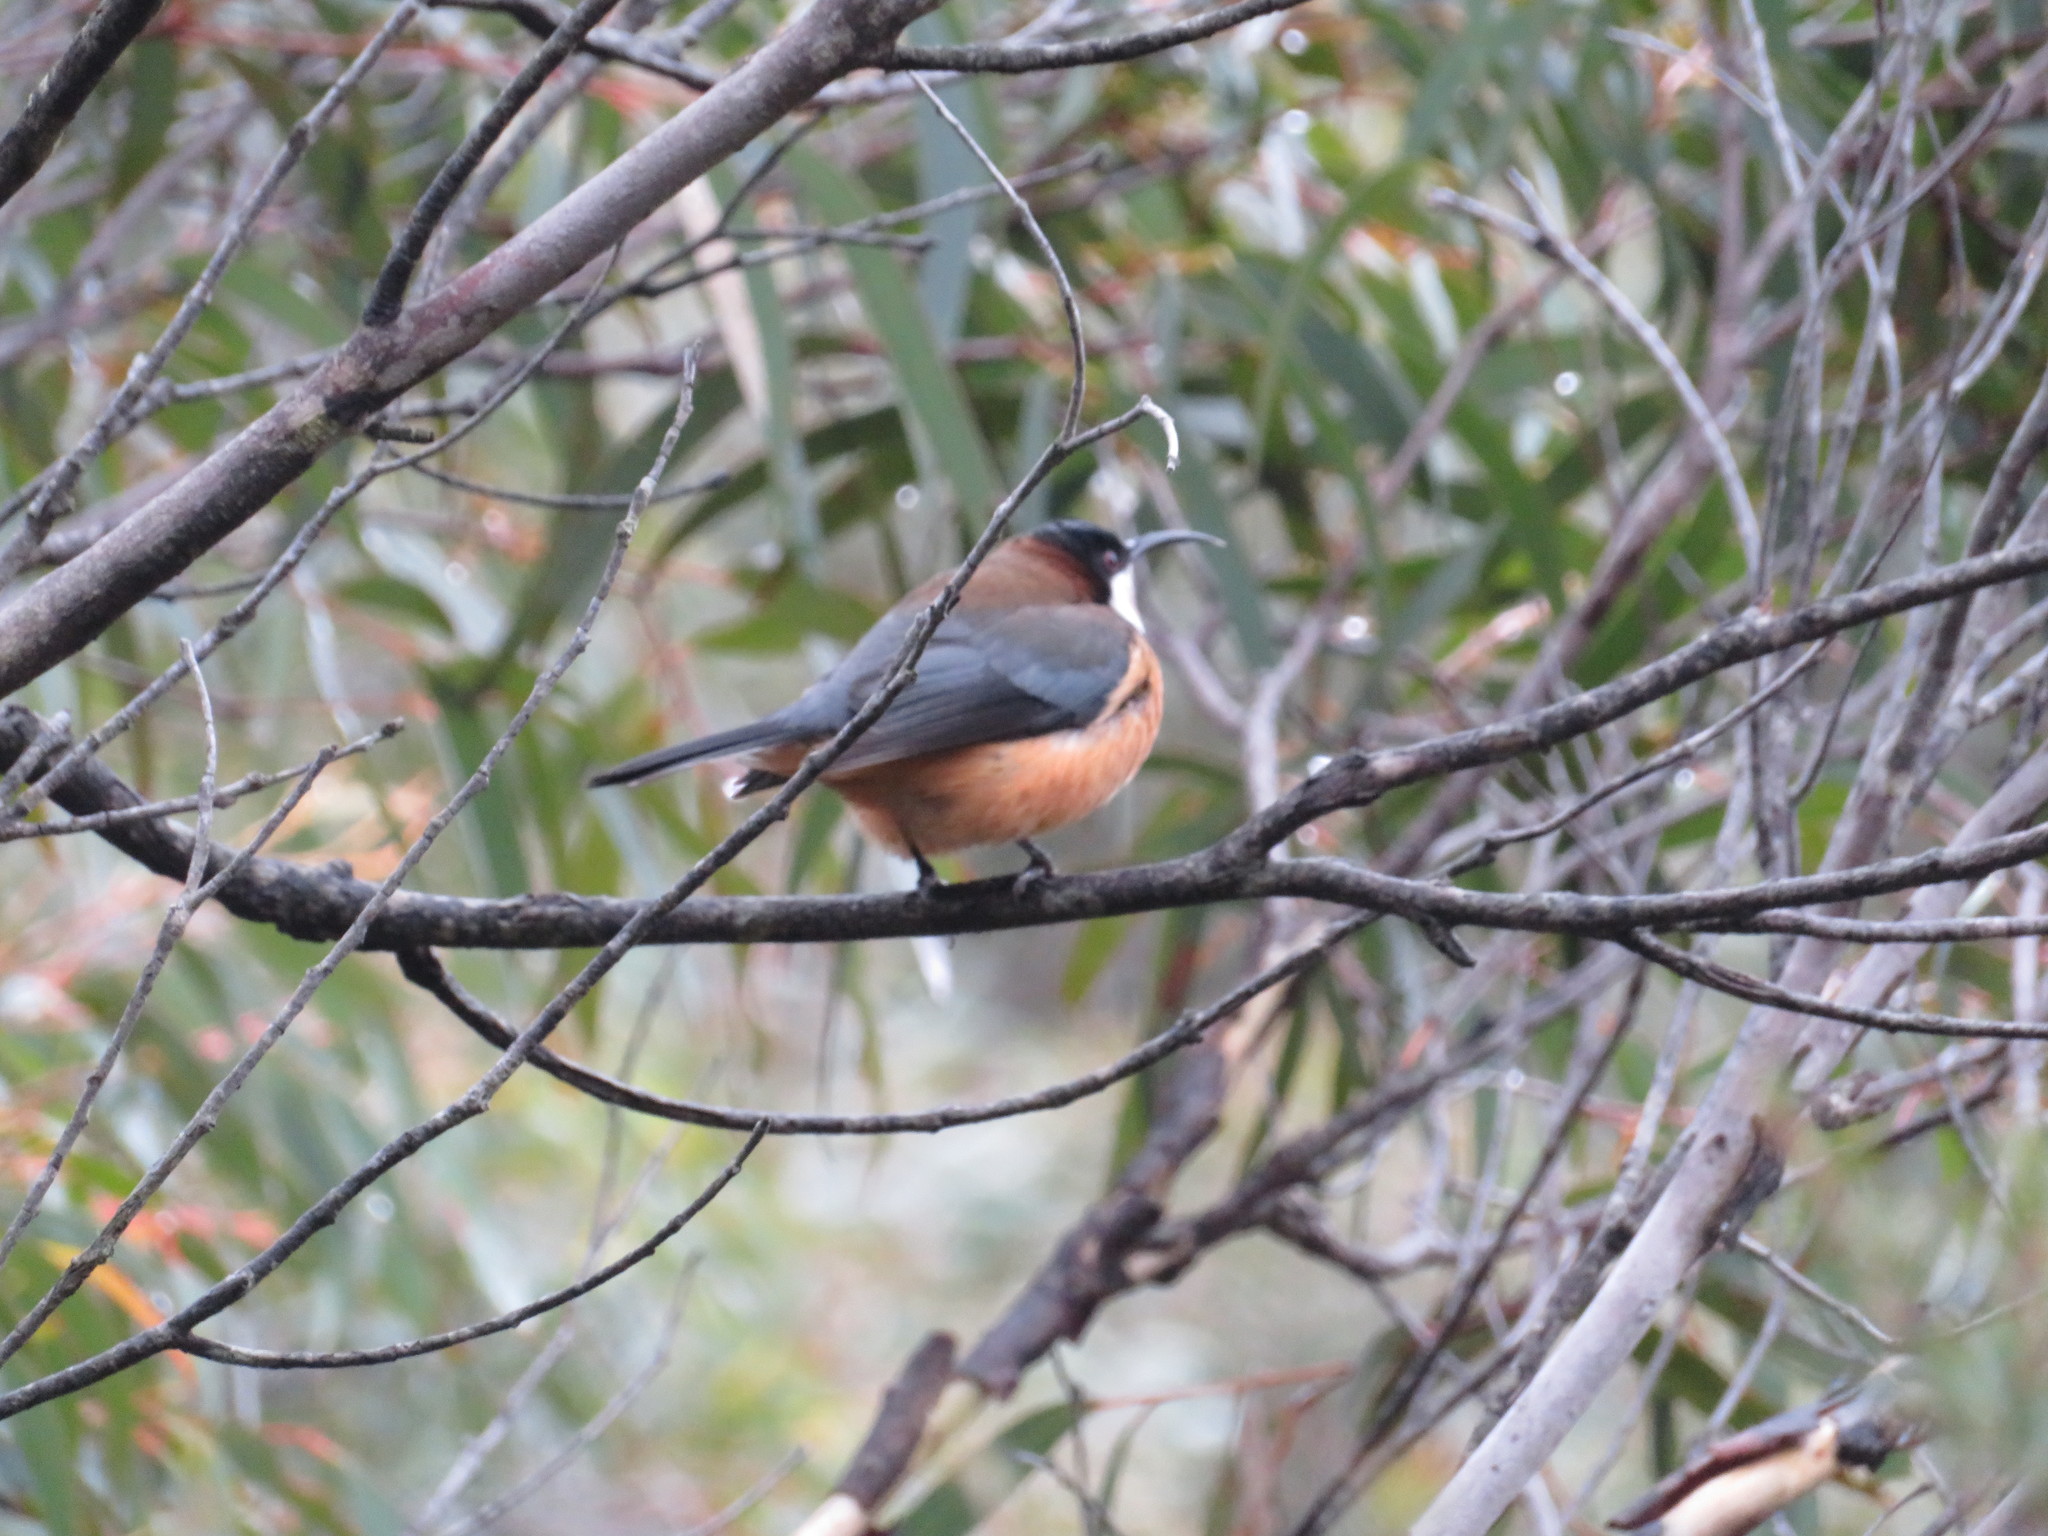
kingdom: Animalia
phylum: Chordata
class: Aves
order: Passeriformes
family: Meliphagidae
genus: Acanthorhynchus
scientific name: Acanthorhynchus tenuirostris
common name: Eastern spinebill
